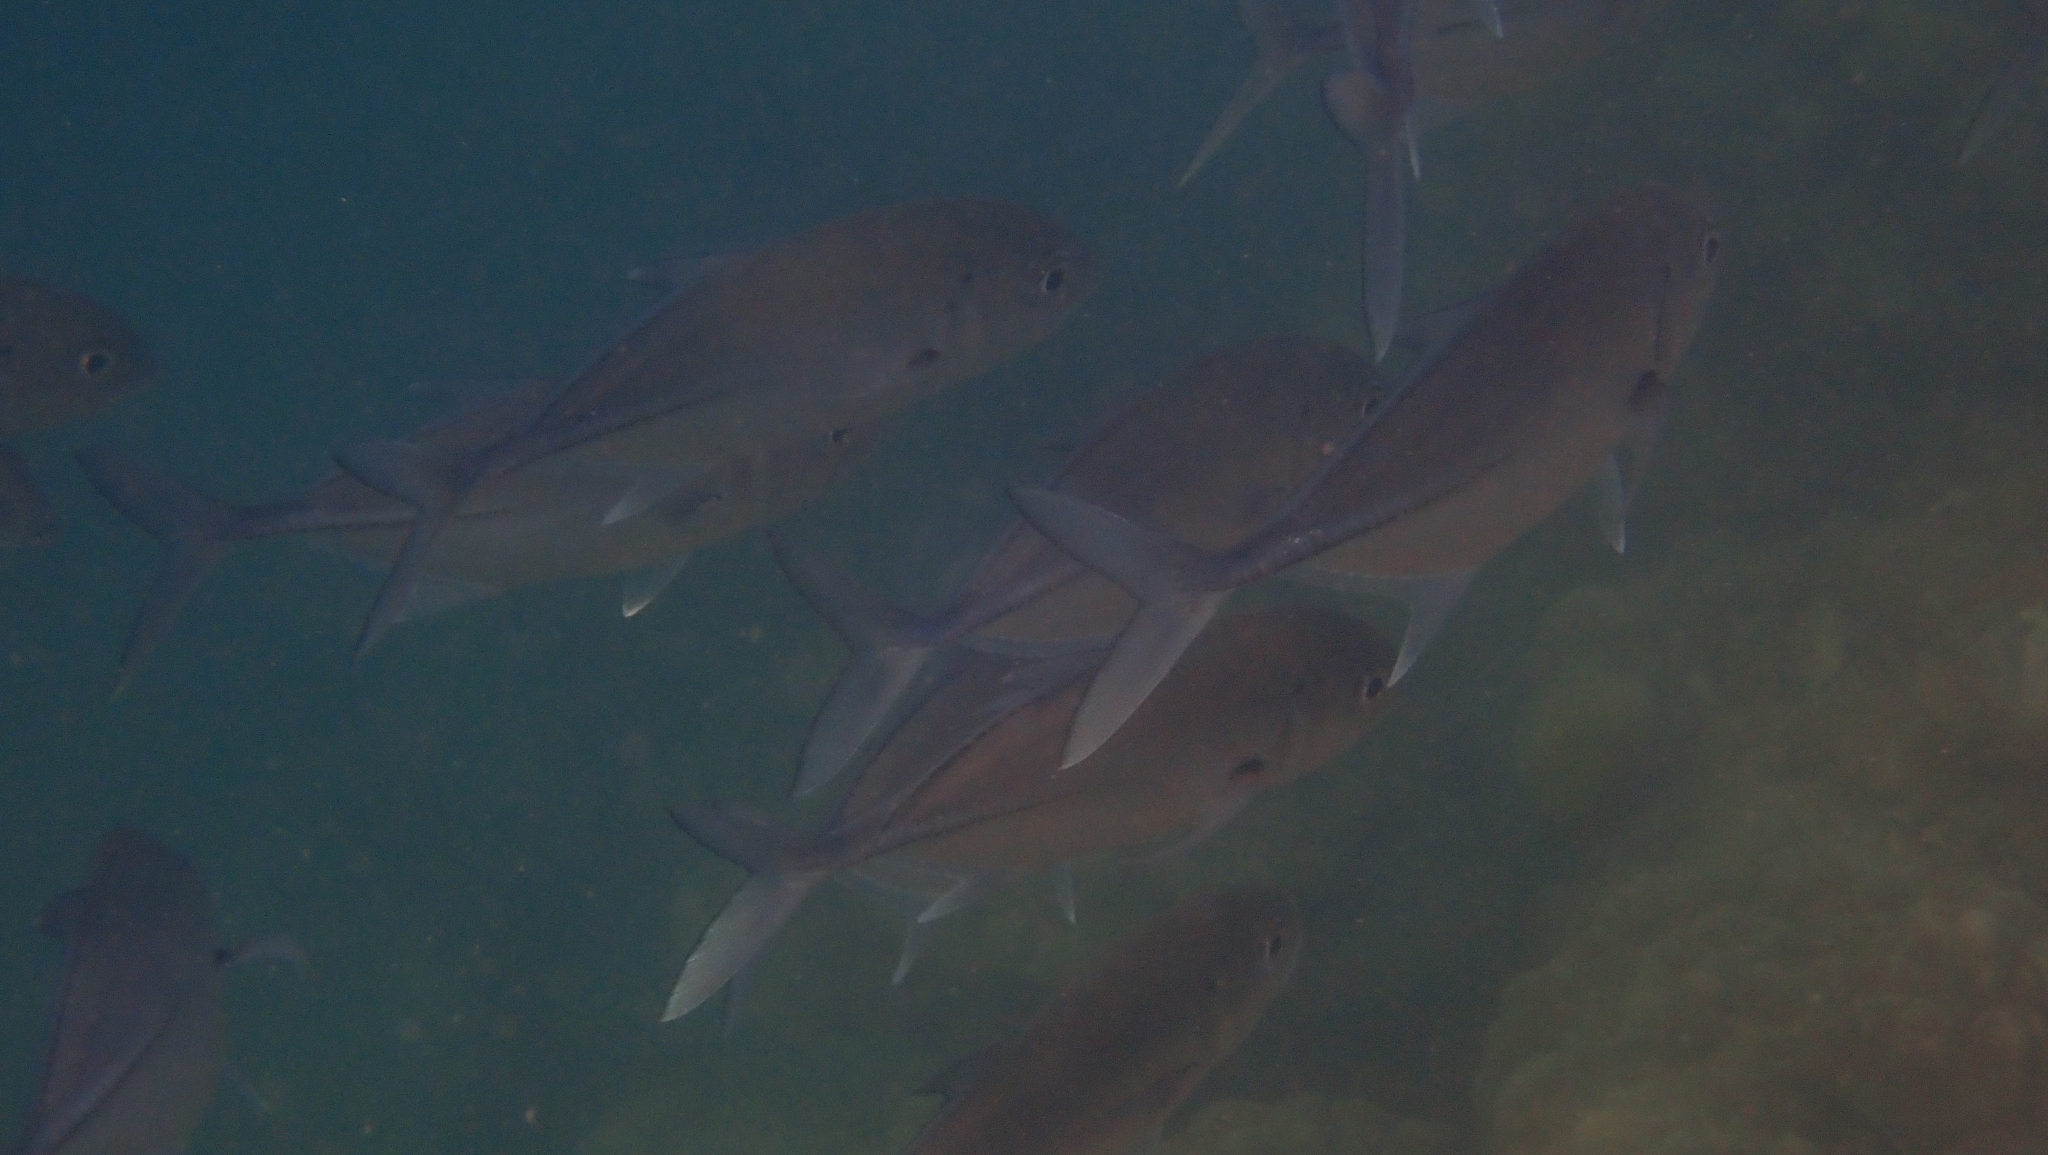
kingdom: Animalia
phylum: Chordata
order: Perciformes
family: Carangidae
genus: Caranx
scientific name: Caranx sexfasciatus
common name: Bigeye trevally
